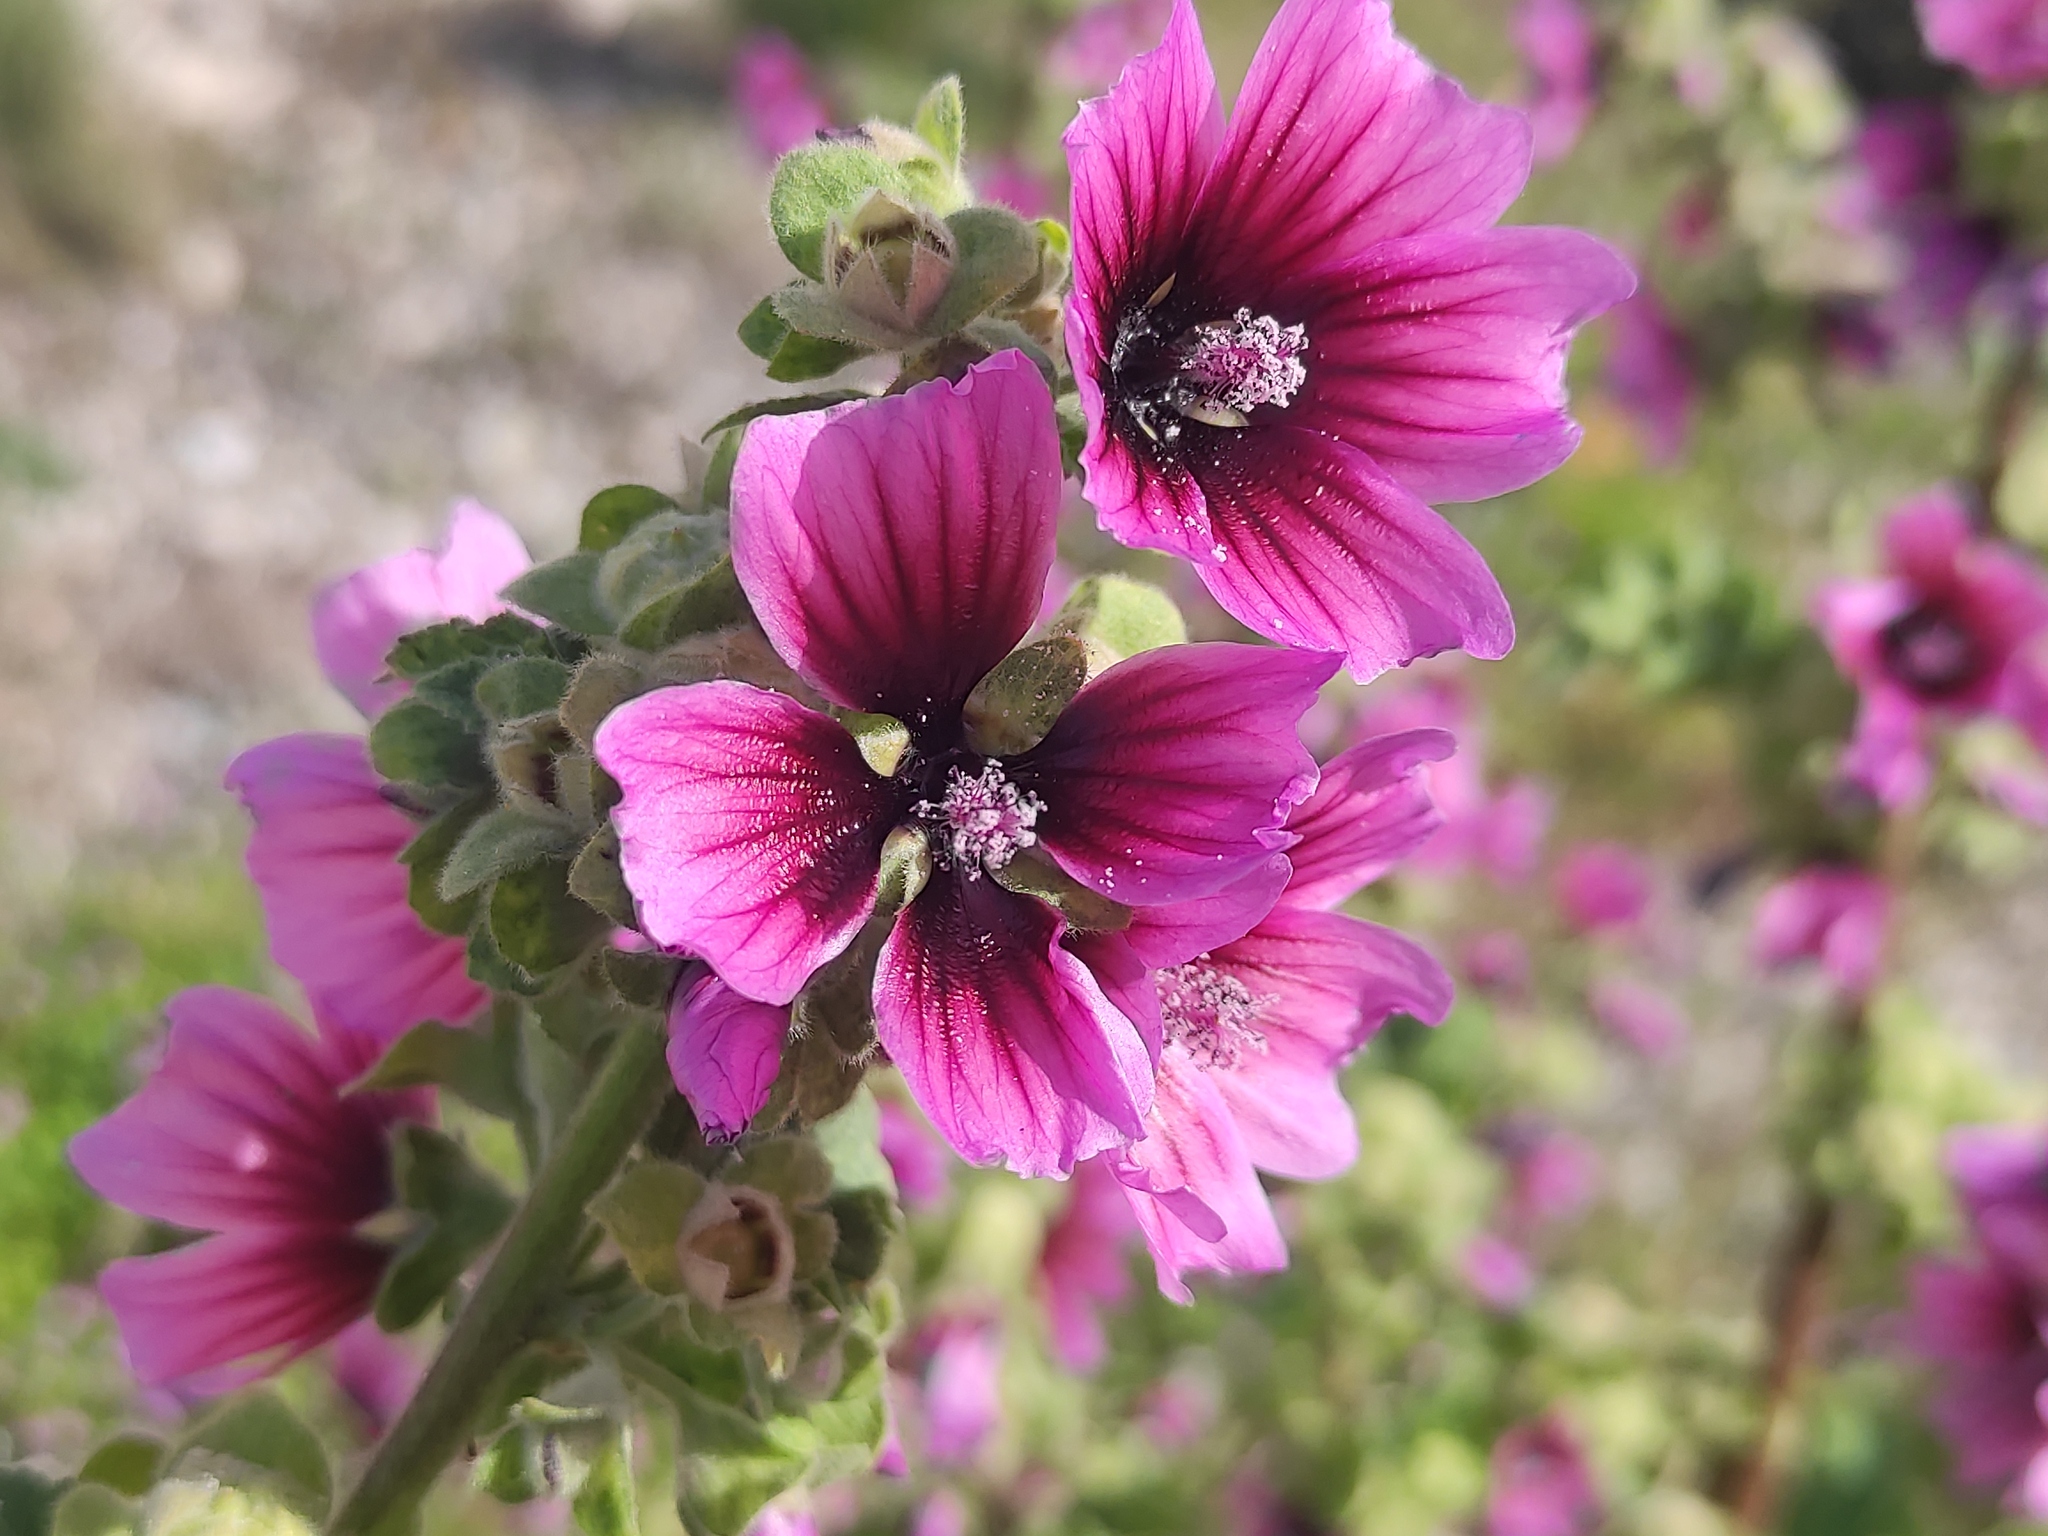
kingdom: Plantae
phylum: Tracheophyta
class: Magnoliopsida
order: Malvales
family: Malvaceae
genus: Malva
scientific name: Malva arborea
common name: Tree mallow
